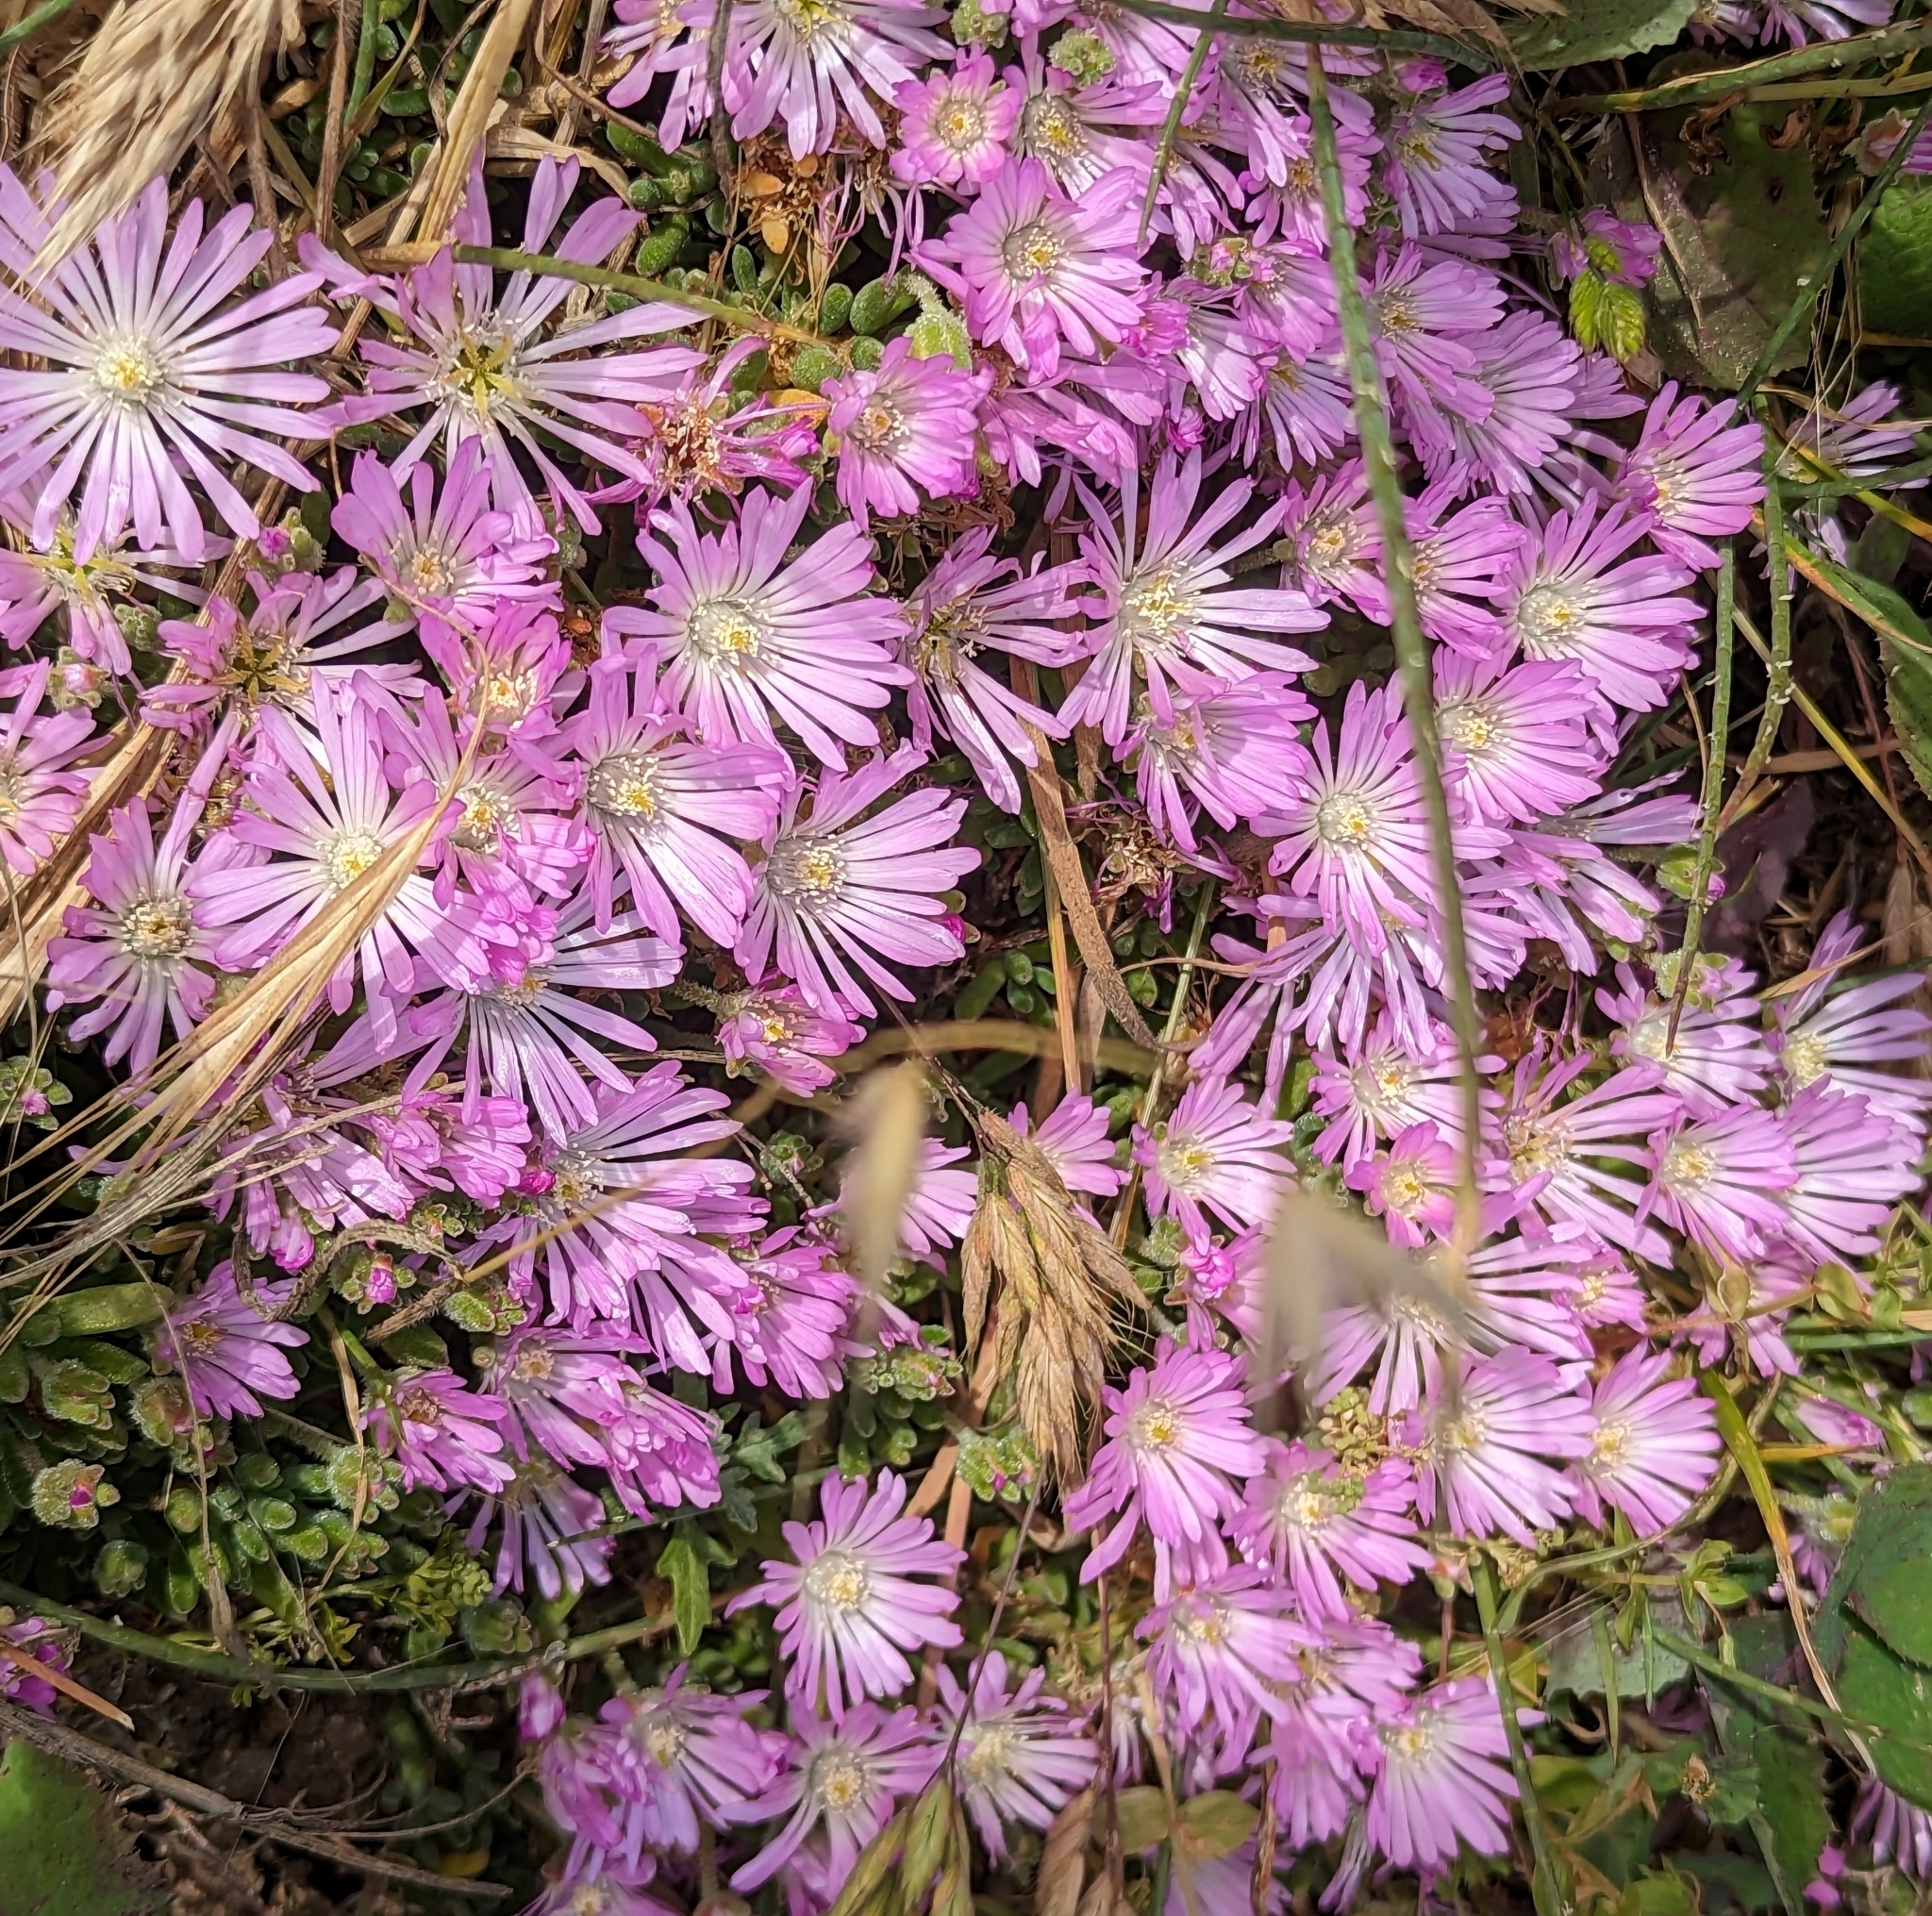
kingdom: Plantae
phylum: Tracheophyta
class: Magnoliopsida
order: Caryophyllales
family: Aizoaceae
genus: Drosanthemum
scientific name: Drosanthemum floribundum
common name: Pale dewplant
